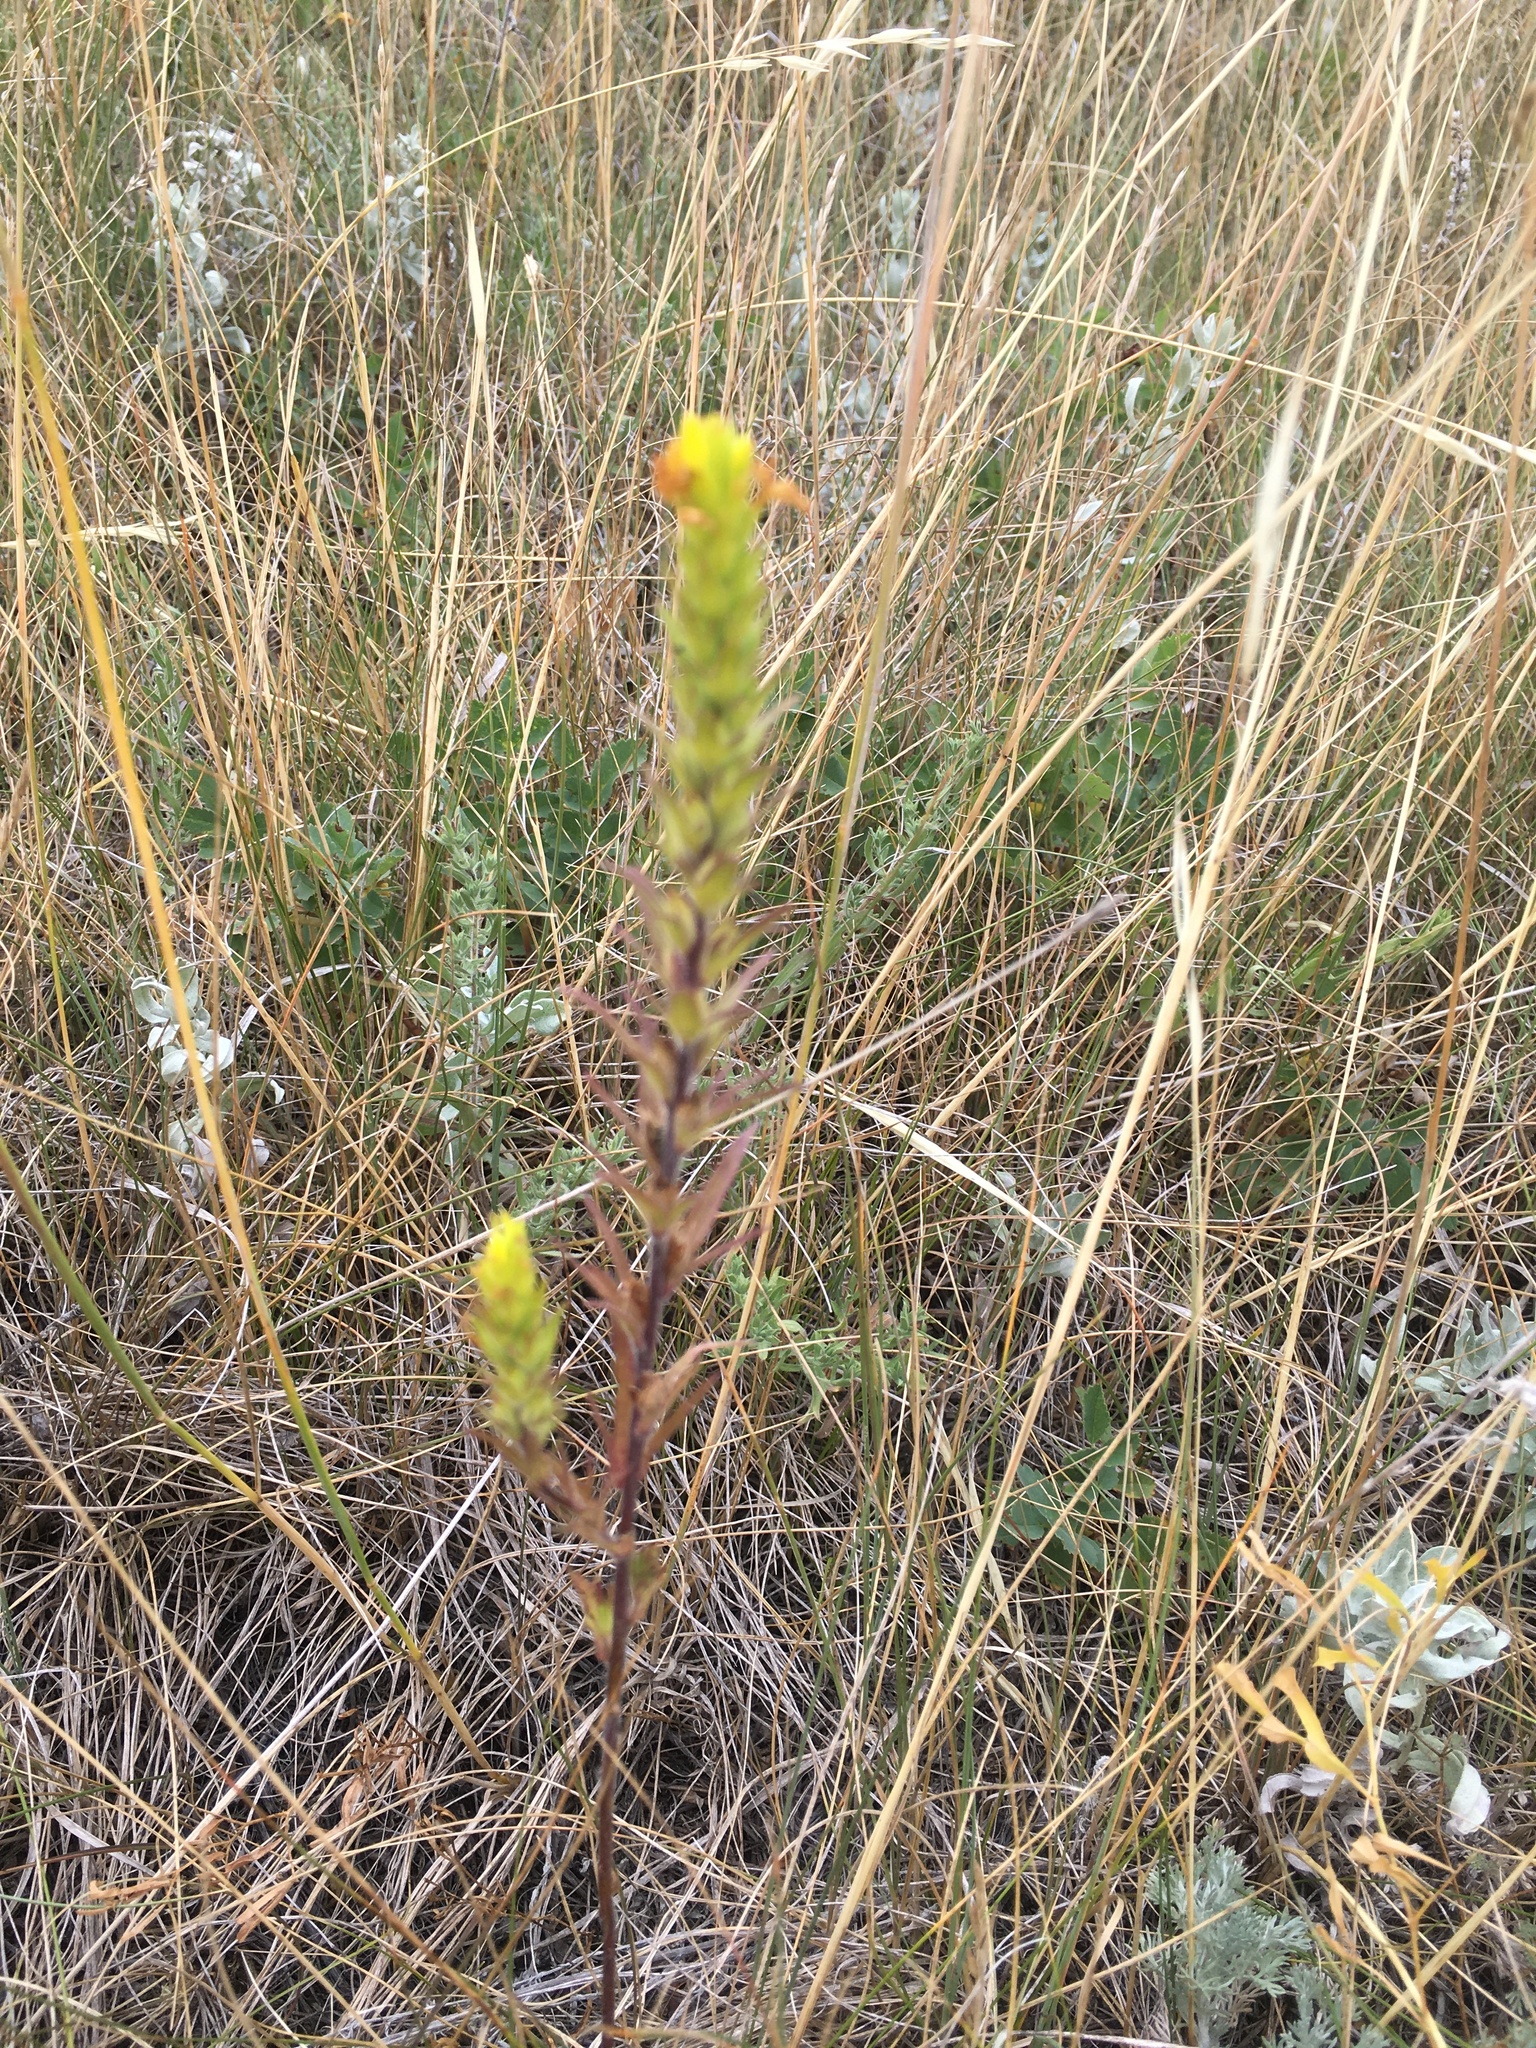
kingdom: Plantae
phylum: Tracheophyta
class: Magnoliopsida
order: Lamiales
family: Orobanchaceae
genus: Orthocarpus
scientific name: Orthocarpus luteus
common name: Golden-tongue owl's-clover
